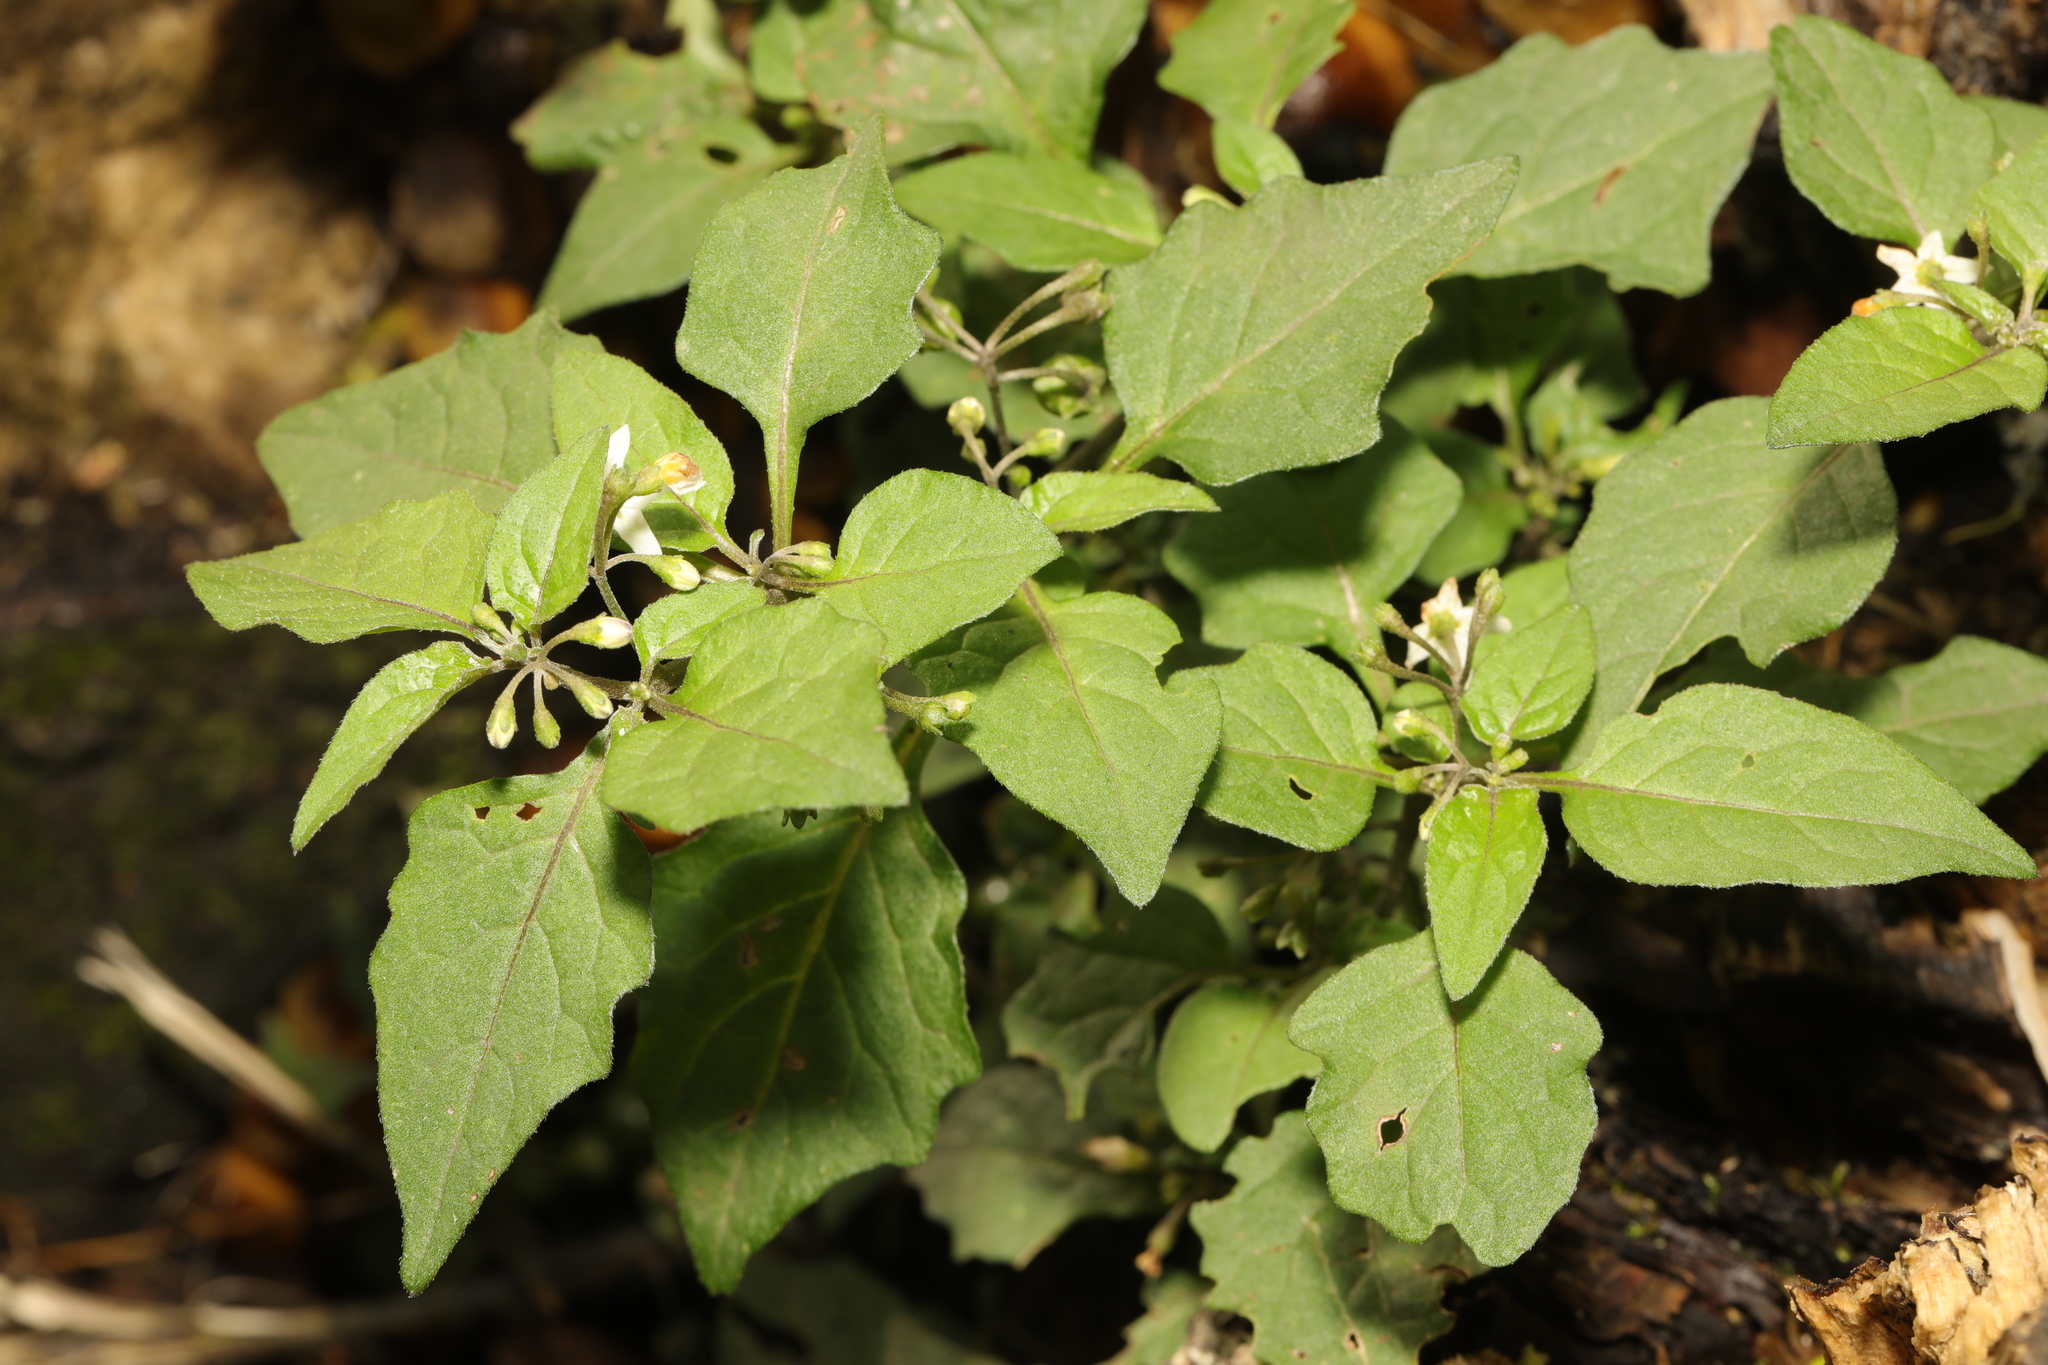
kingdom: Plantae
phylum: Tracheophyta
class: Magnoliopsida
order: Solanales
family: Solanaceae
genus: Solanum
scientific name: Solanum nigrum
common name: Black nightshade
